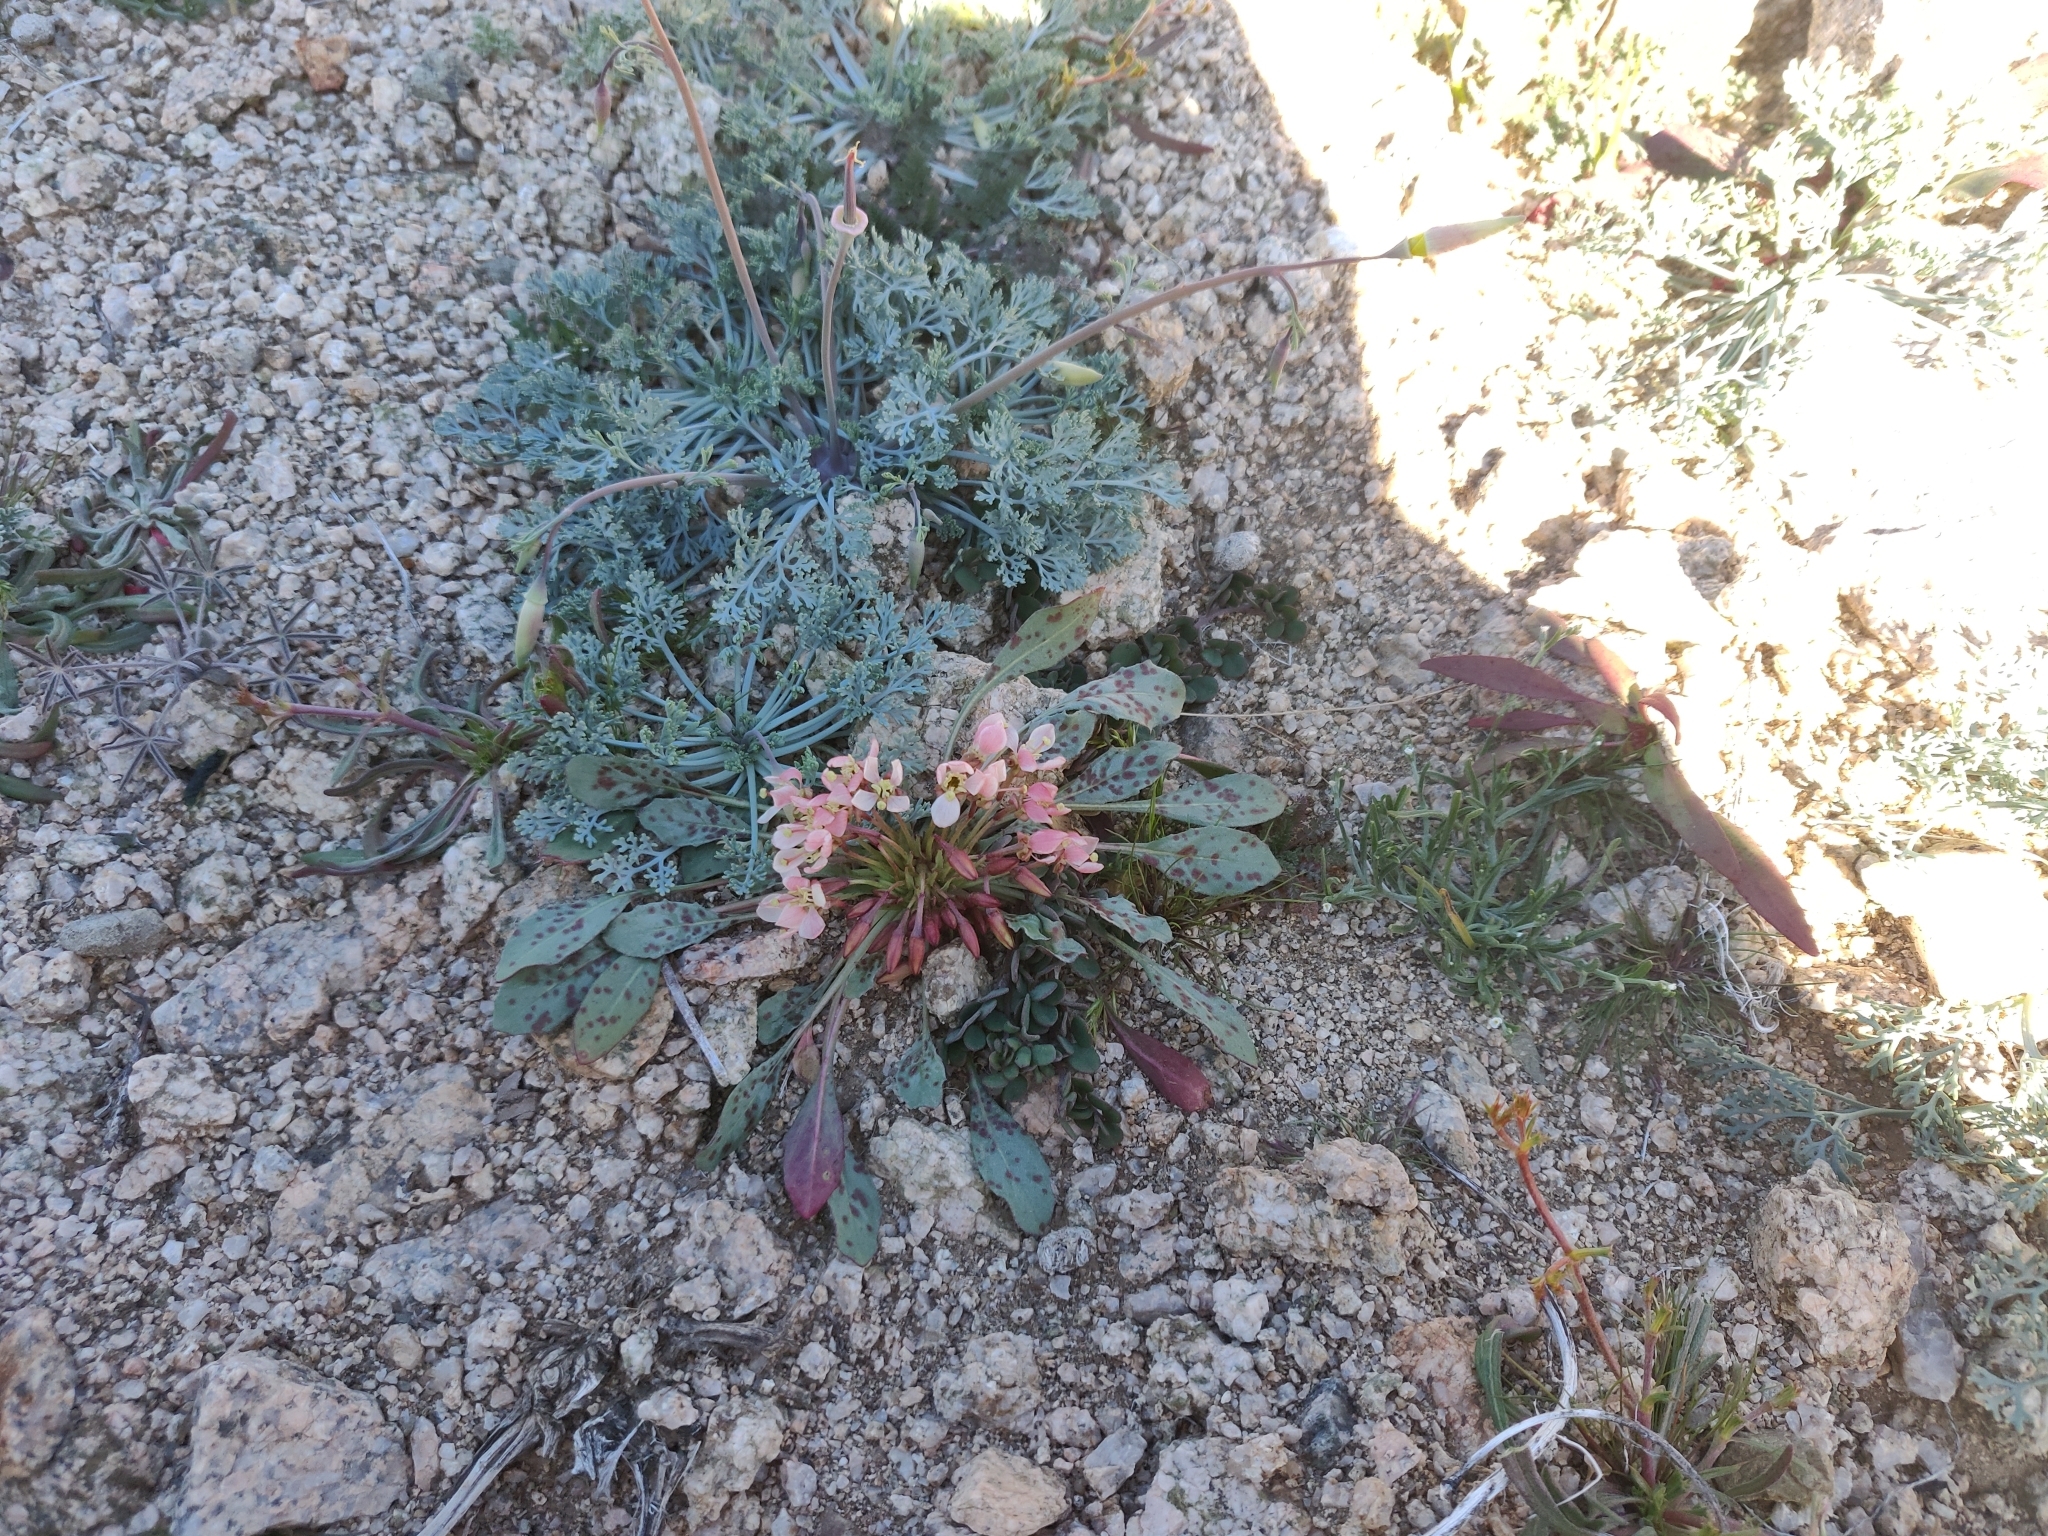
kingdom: Plantae
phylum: Tracheophyta
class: Magnoliopsida
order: Myrtales
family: Onagraceae
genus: Eremothera
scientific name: Eremothera boothii
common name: Booth's evening primrose
